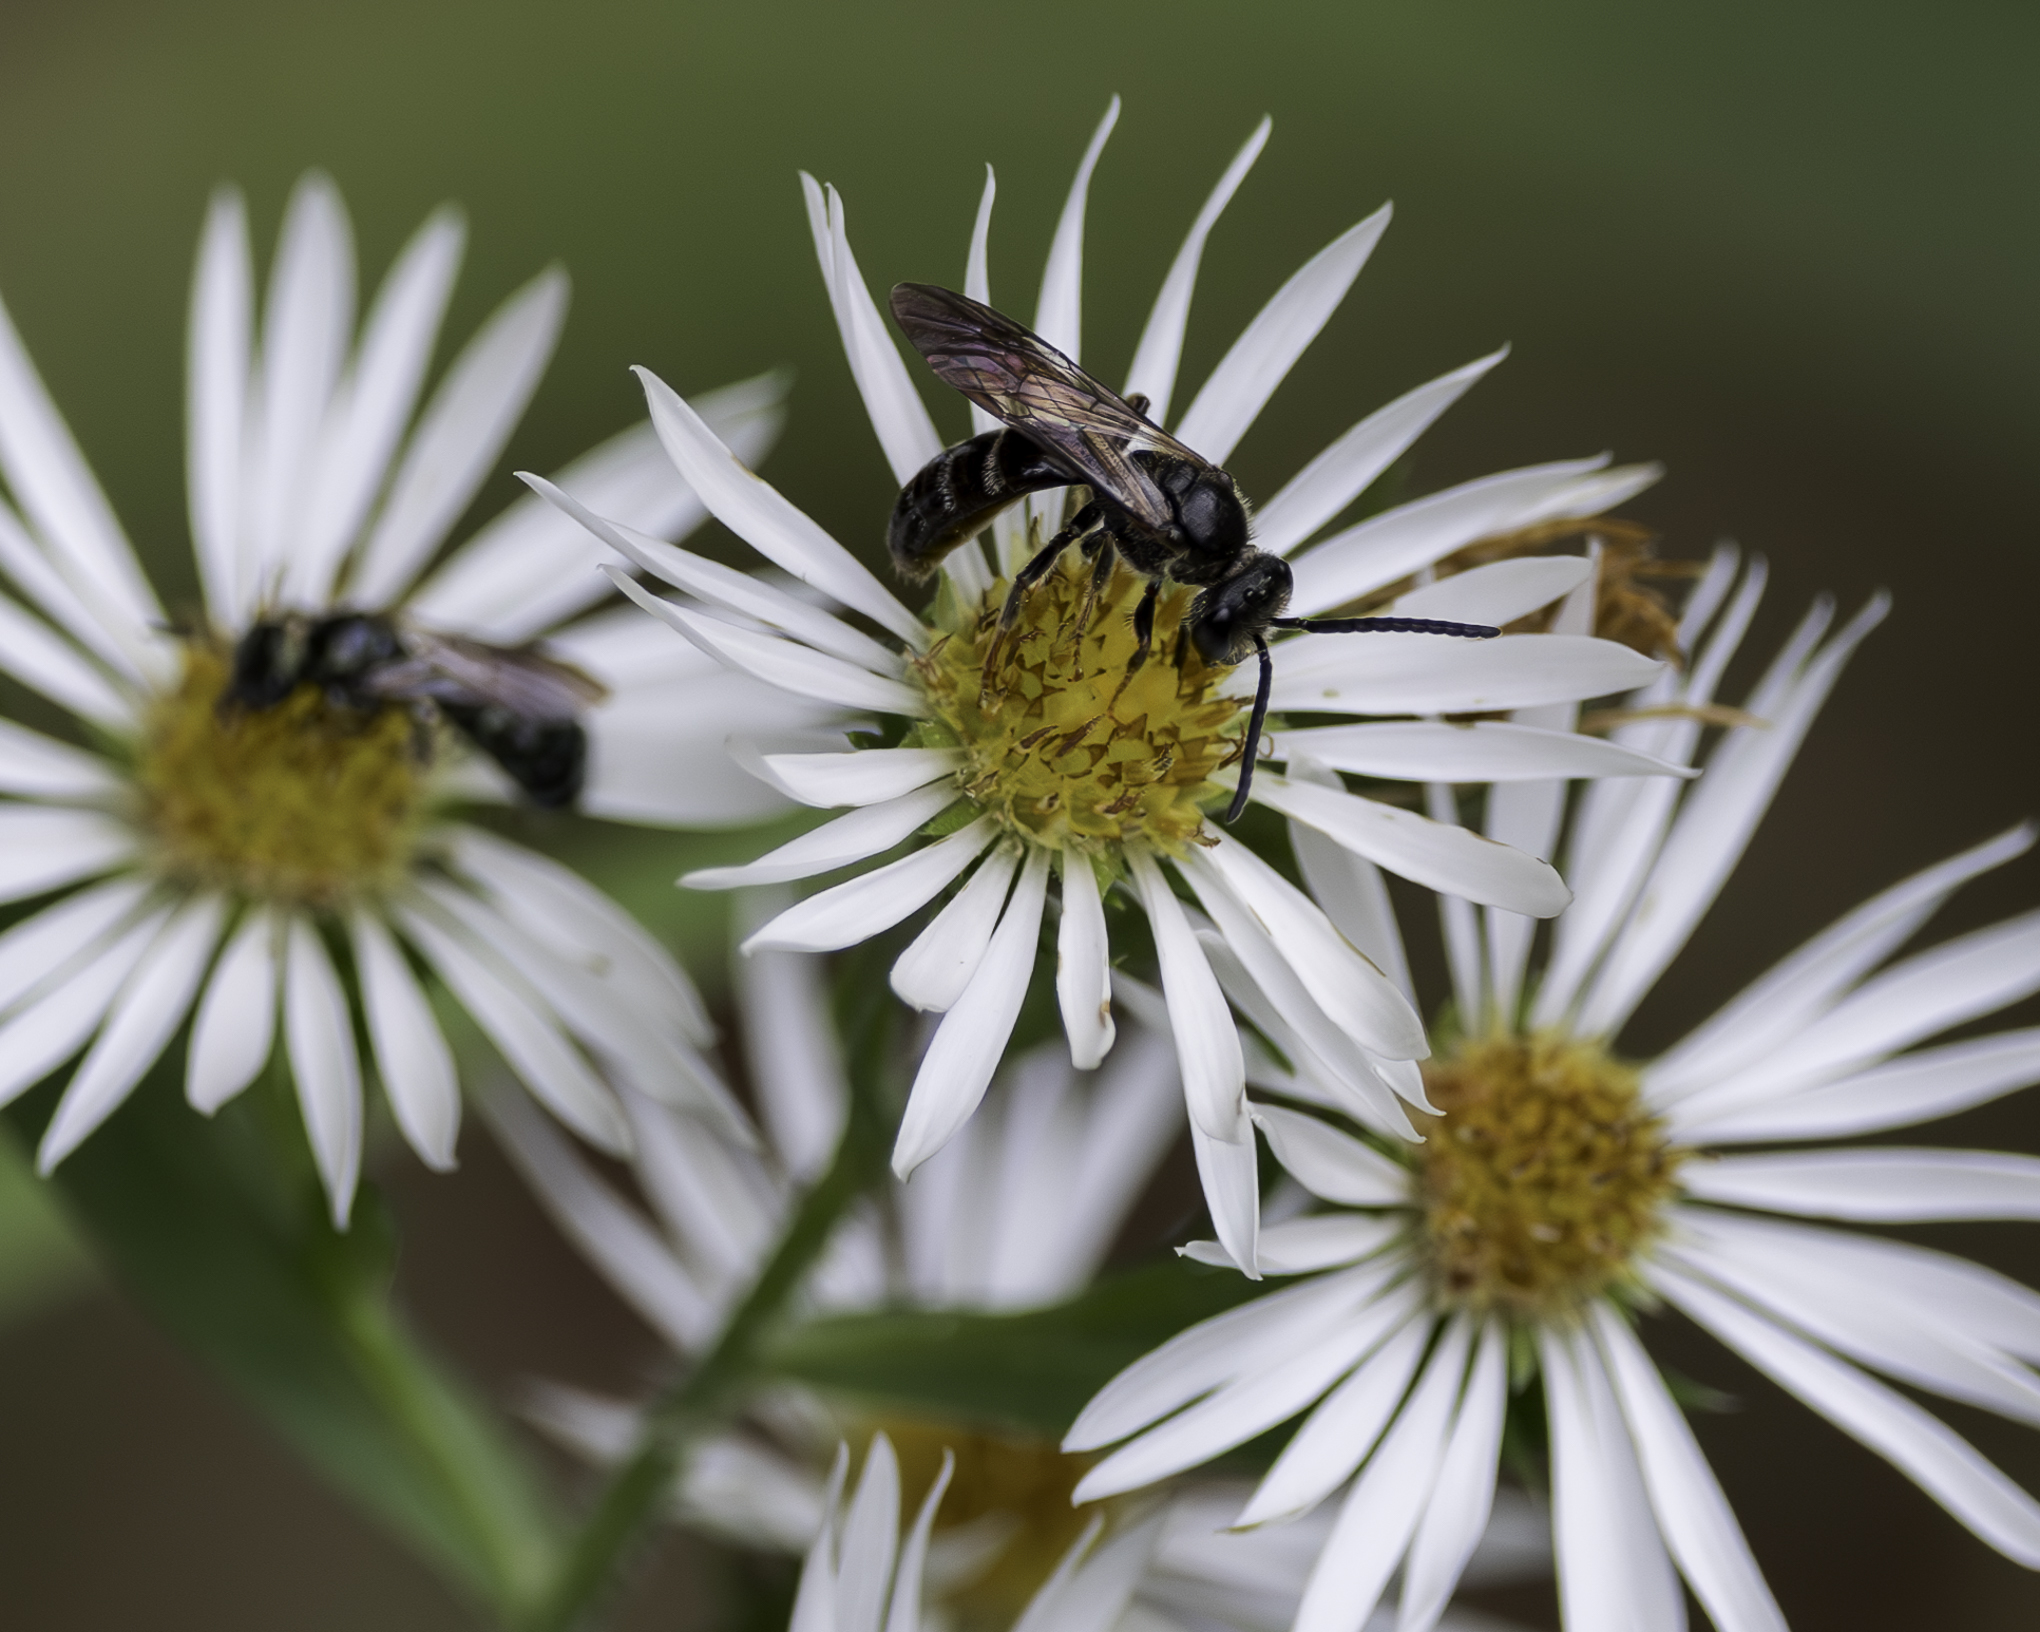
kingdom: Animalia
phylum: Arthropoda
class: Insecta
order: Hymenoptera
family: Halictidae
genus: Lasioglossum
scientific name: Lasioglossum fuscipenne
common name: Brown-winged sweat bee
